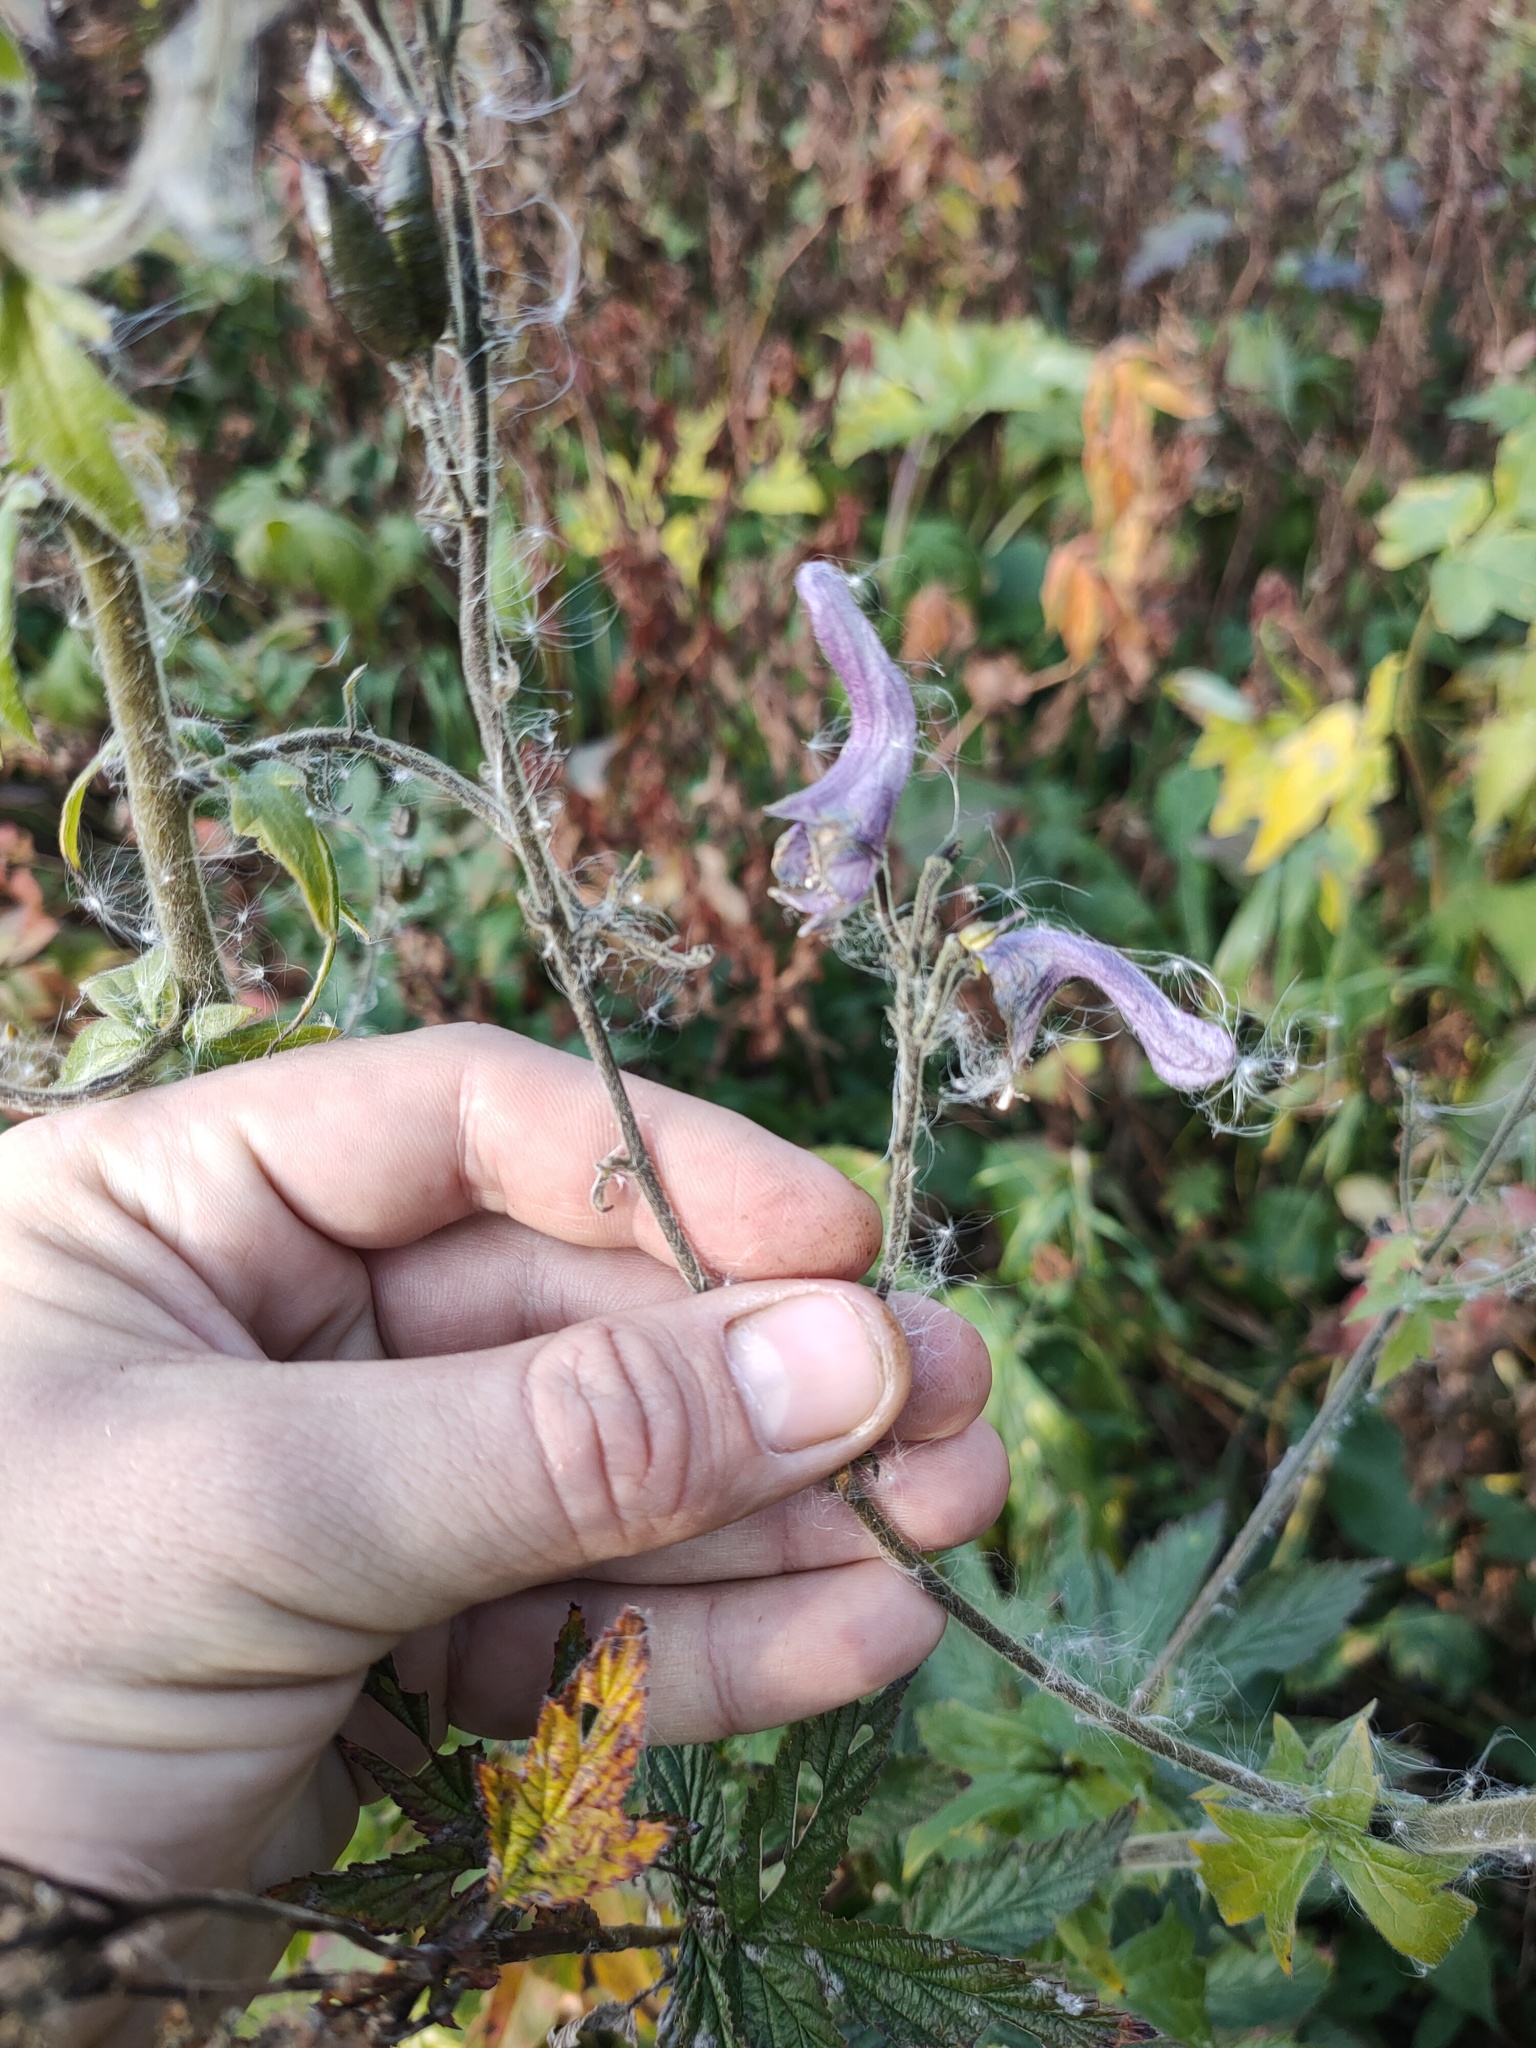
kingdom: Plantae
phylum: Tracheophyta
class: Magnoliopsida
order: Ranunculales
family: Ranunculaceae
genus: Aconitum
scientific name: Aconitum septentrionale
